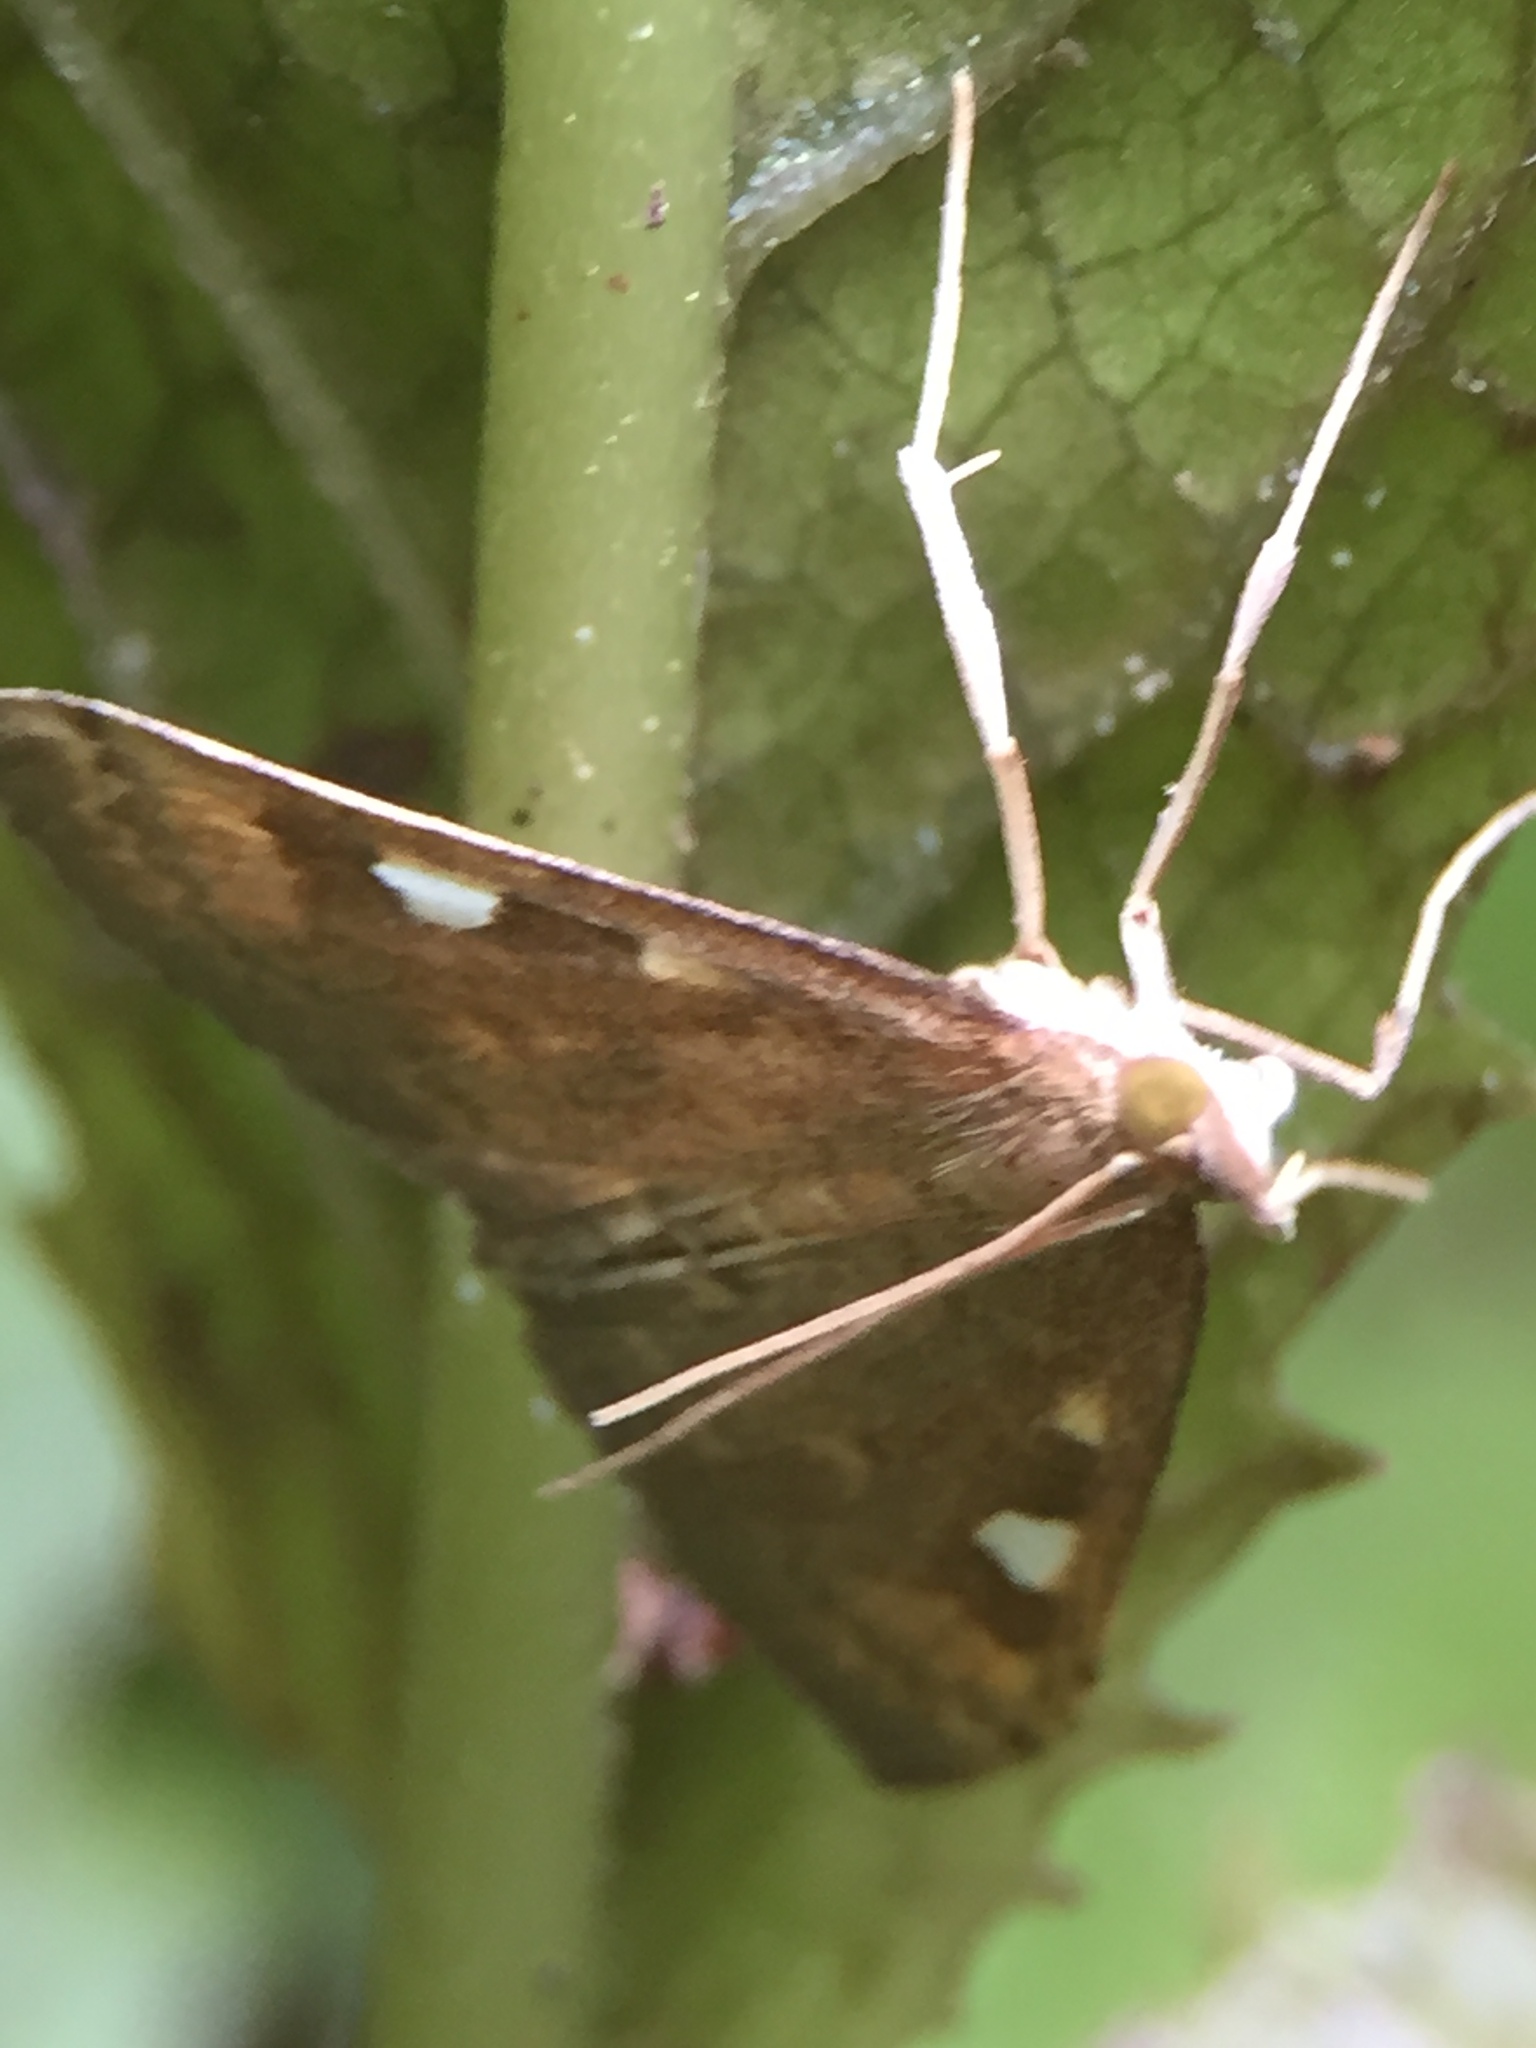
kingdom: Animalia
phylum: Arthropoda
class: Insecta
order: Lepidoptera
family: Crambidae
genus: Udea
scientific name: Udea Mnesictena marmarina
